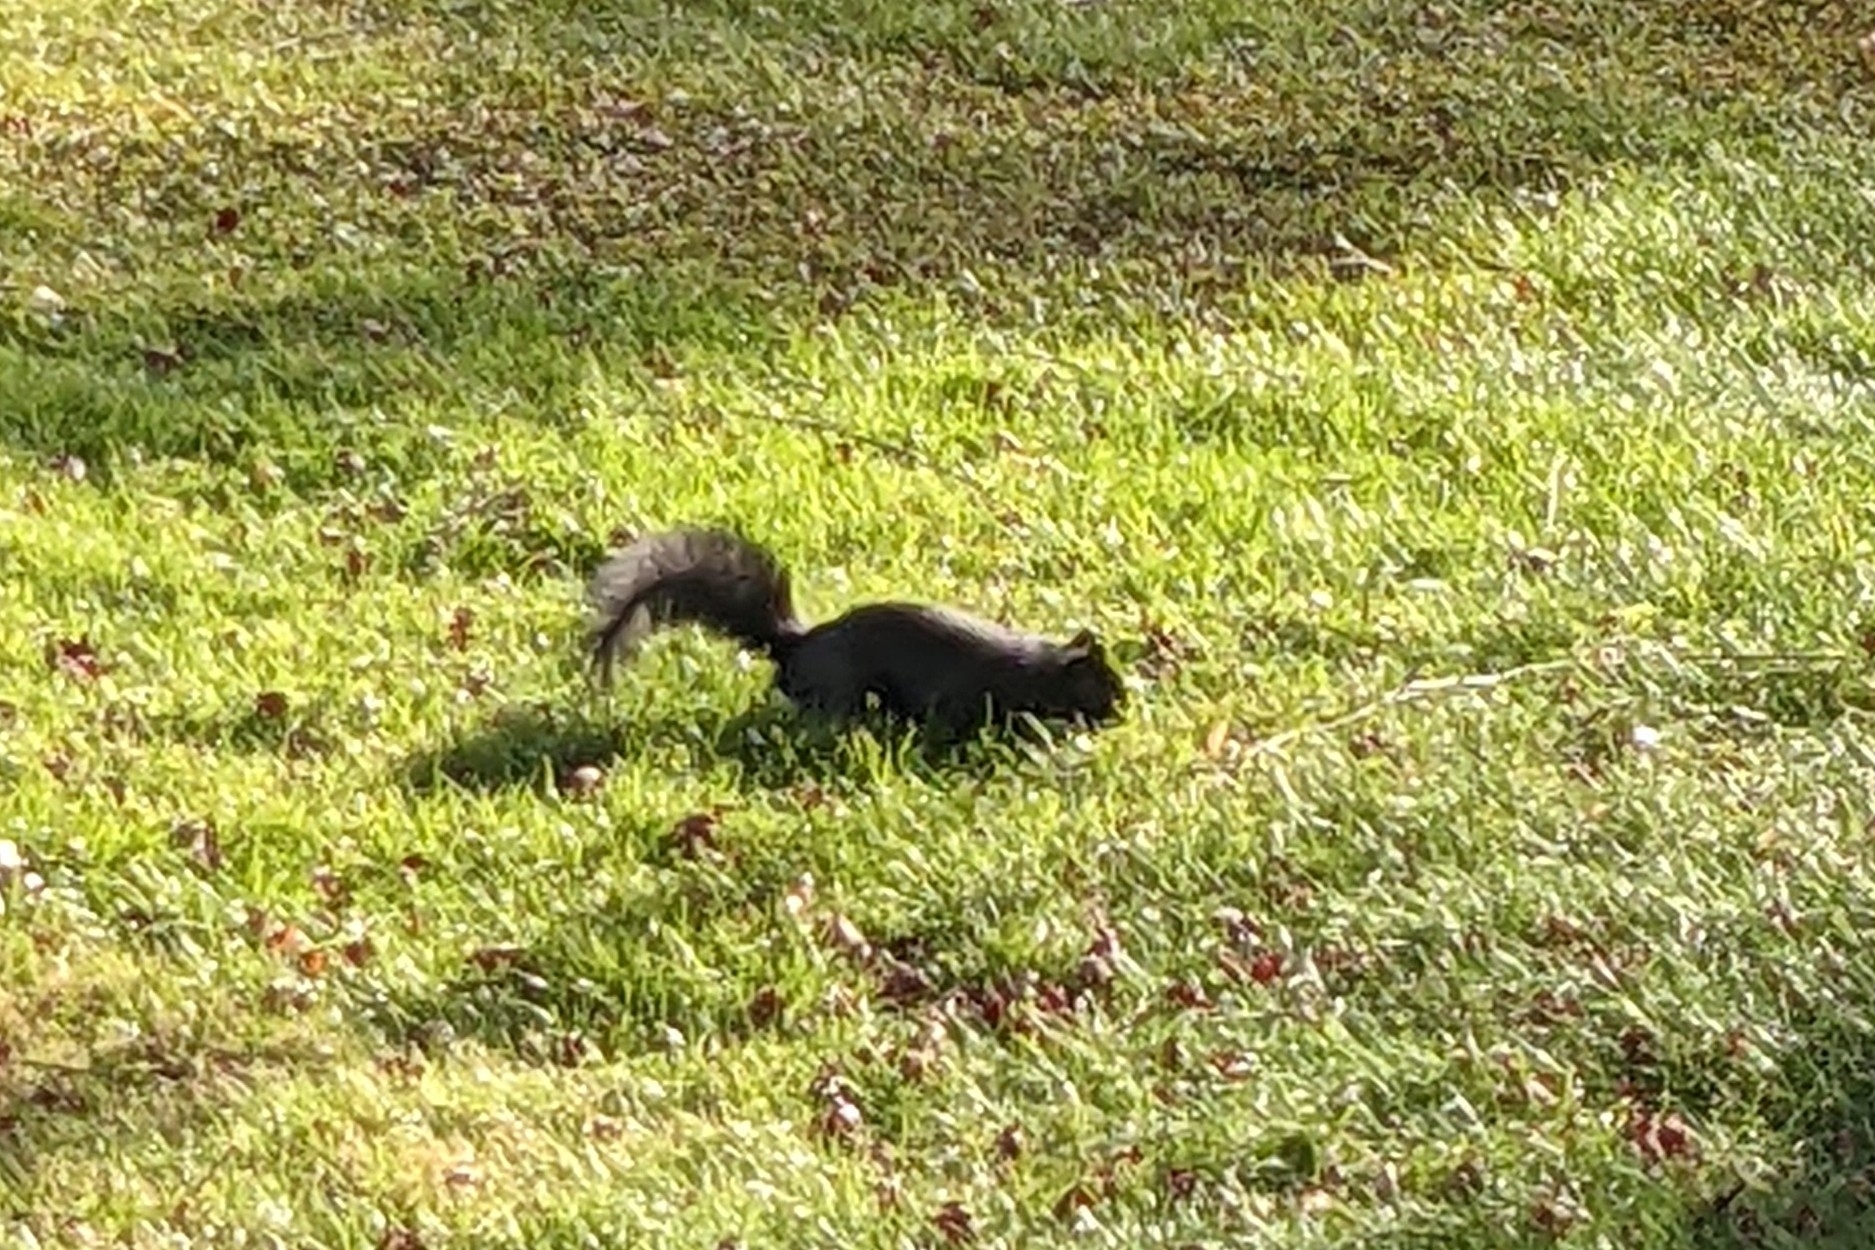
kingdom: Animalia
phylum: Chordata
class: Mammalia
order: Rodentia
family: Sciuridae
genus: Sciurus
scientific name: Sciurus carolinensis
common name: Eastern gray squirrel
